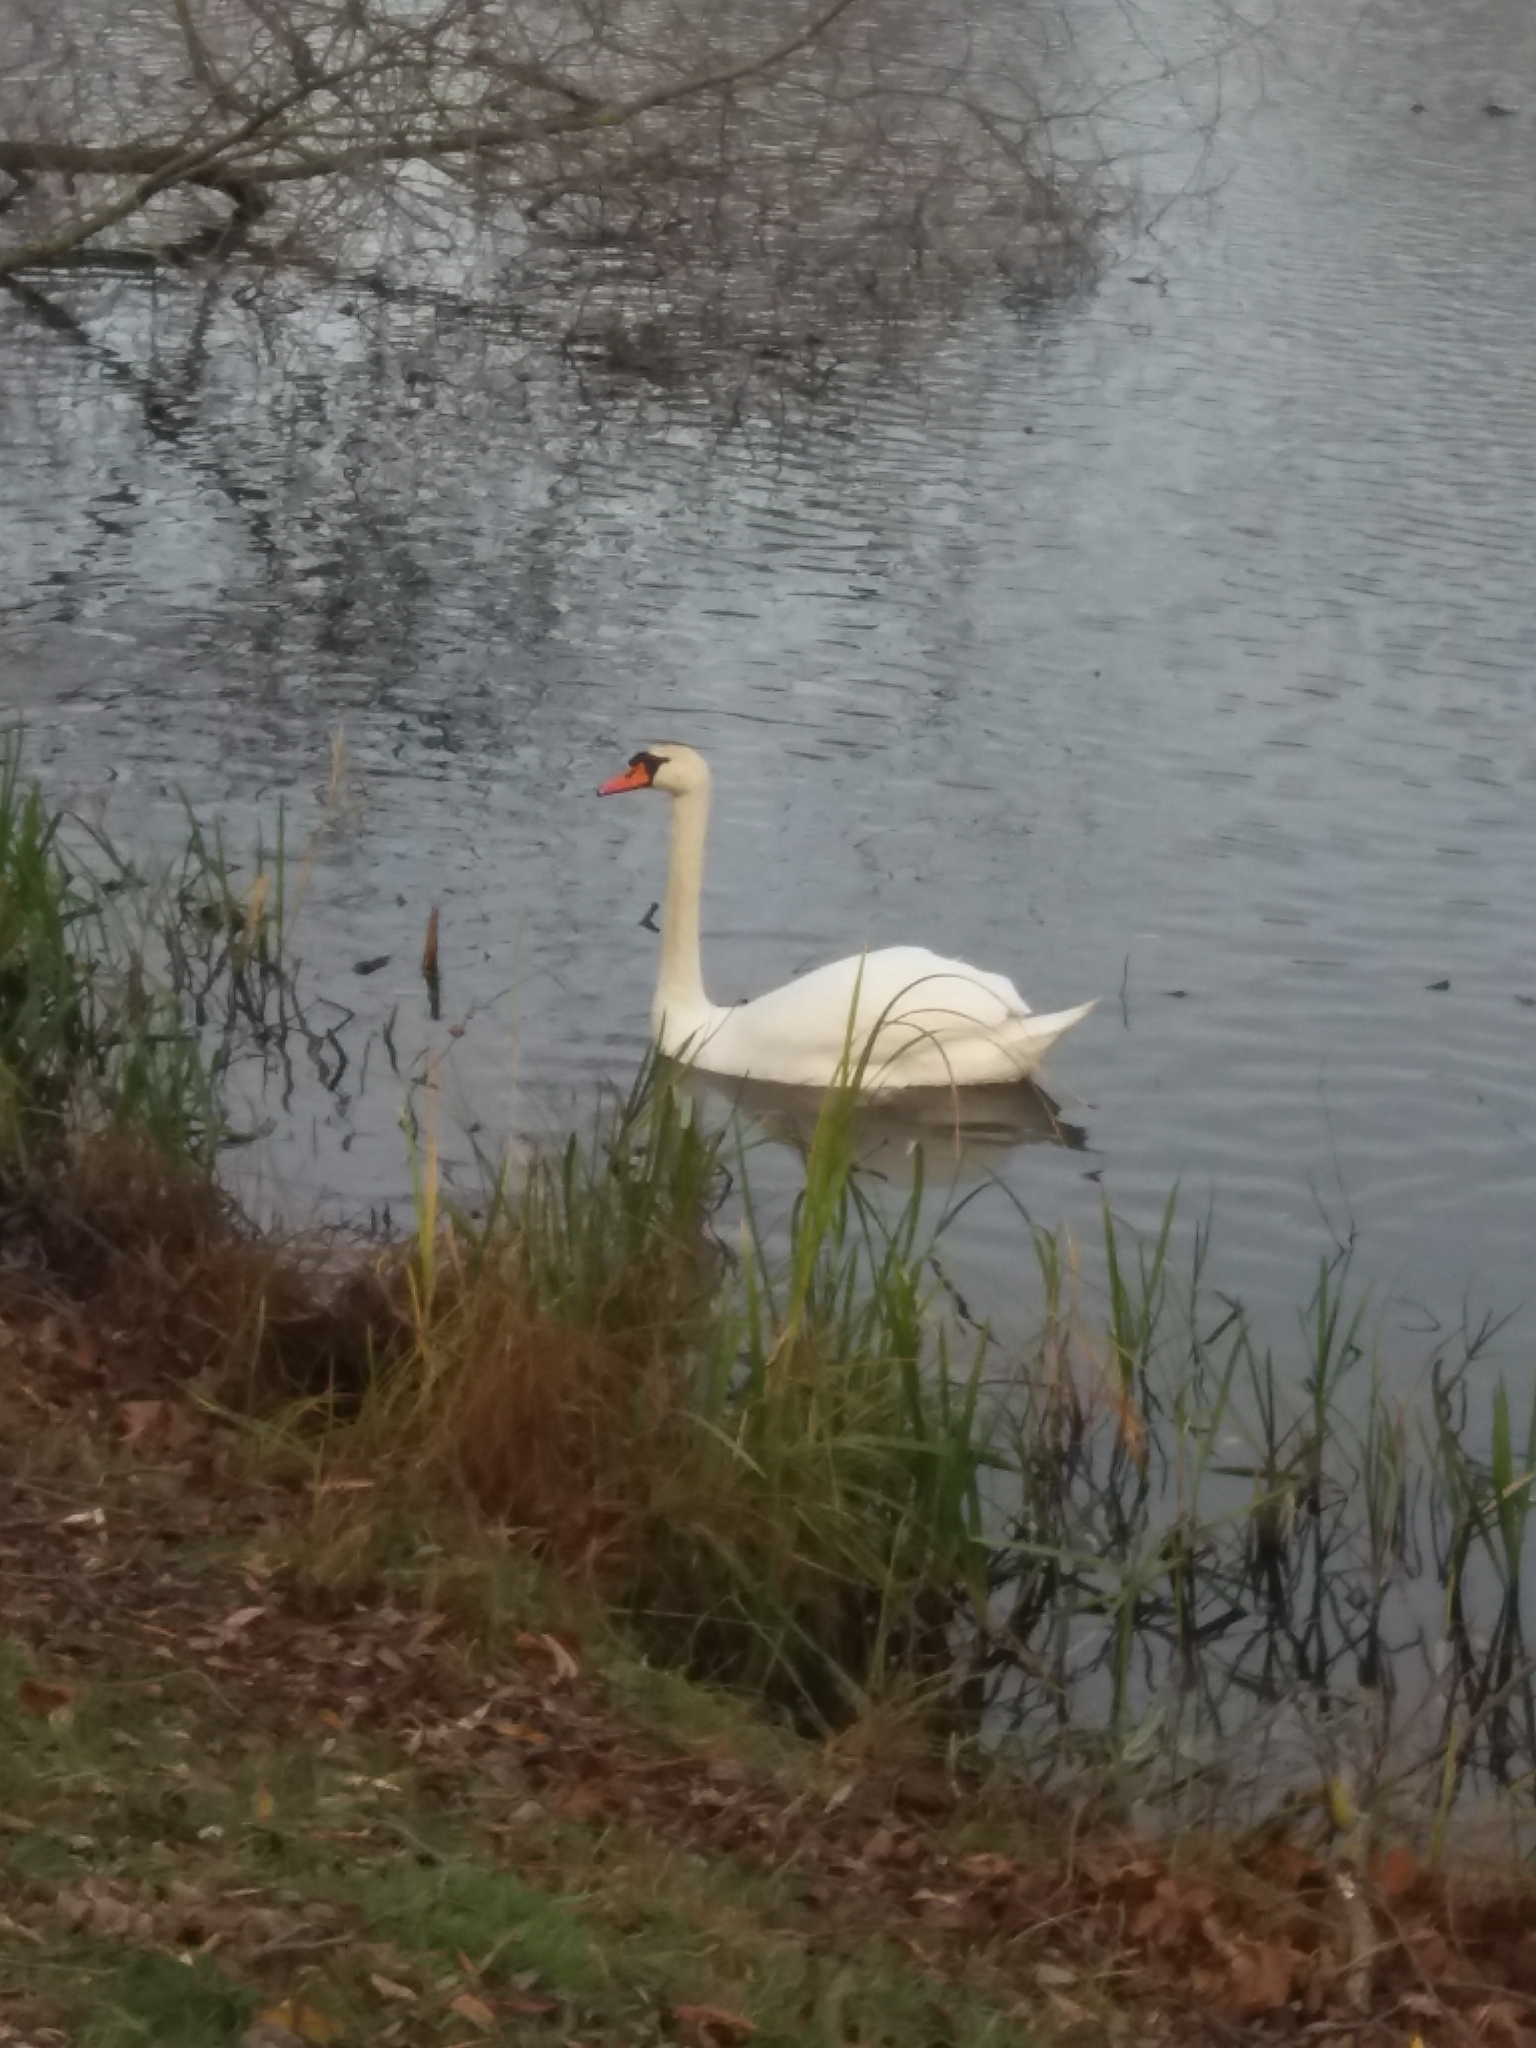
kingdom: Animalia
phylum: Chordata
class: Aves
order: Anseriformes
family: Anatidae
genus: Cygnus
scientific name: Cygnus olor
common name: Mute swan
